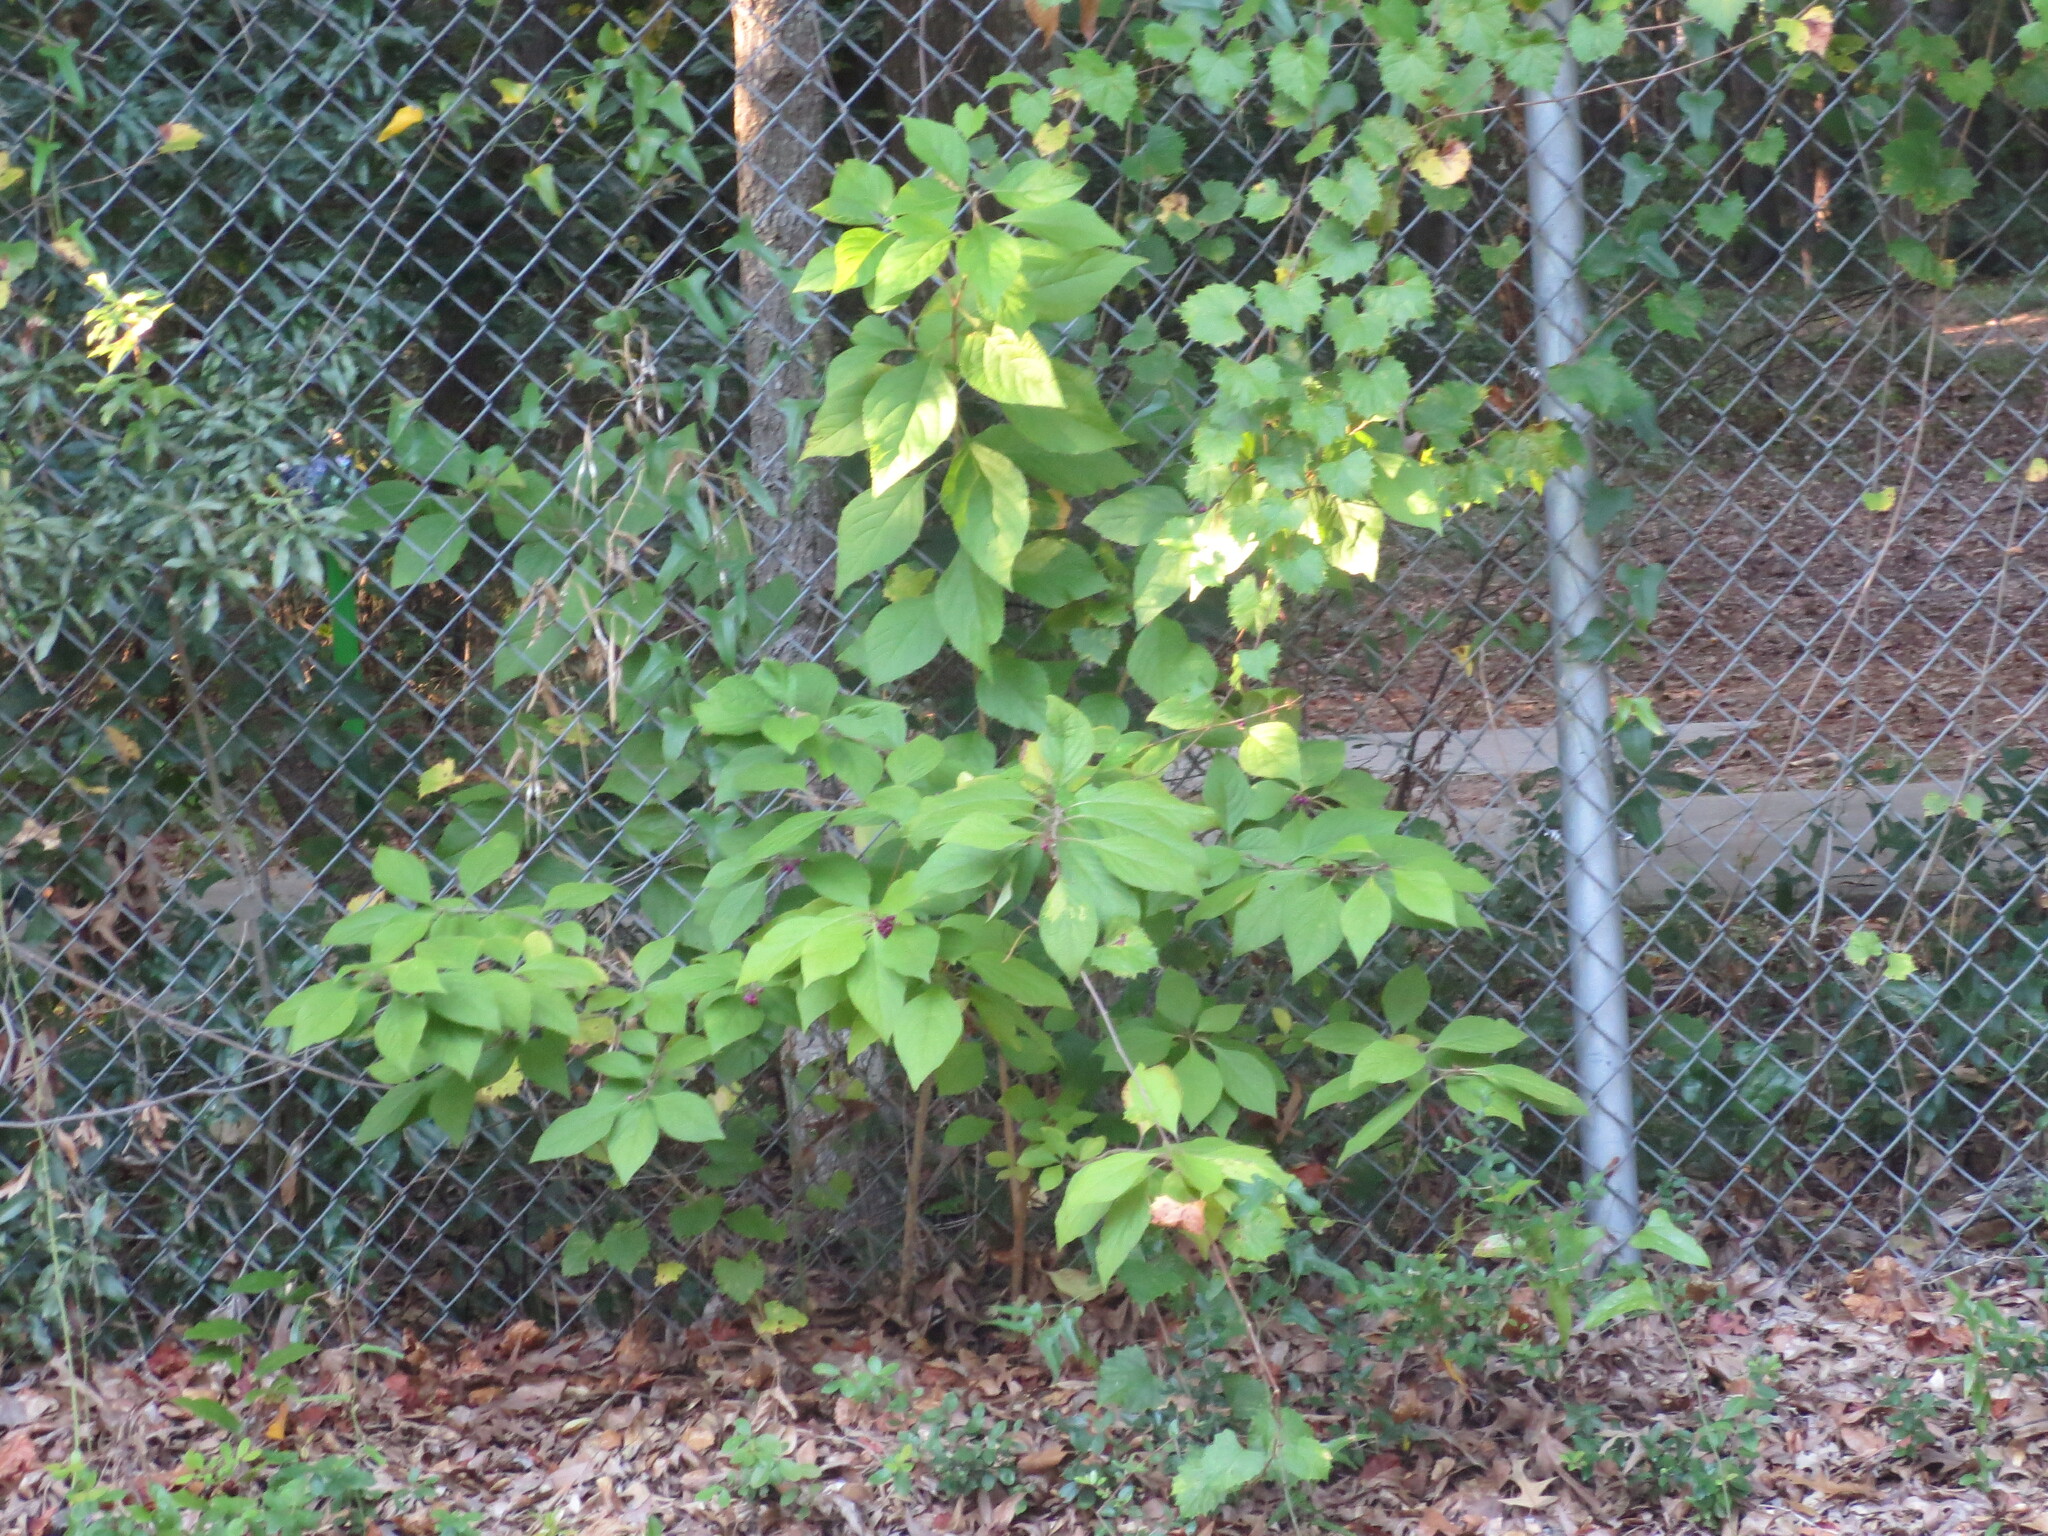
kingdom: Plantae
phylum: Tracheophyta
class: Magnoliopsida
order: Lamiales
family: Lamiaceae
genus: Callicarpa
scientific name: Callicarpa americana
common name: American beautyberry
